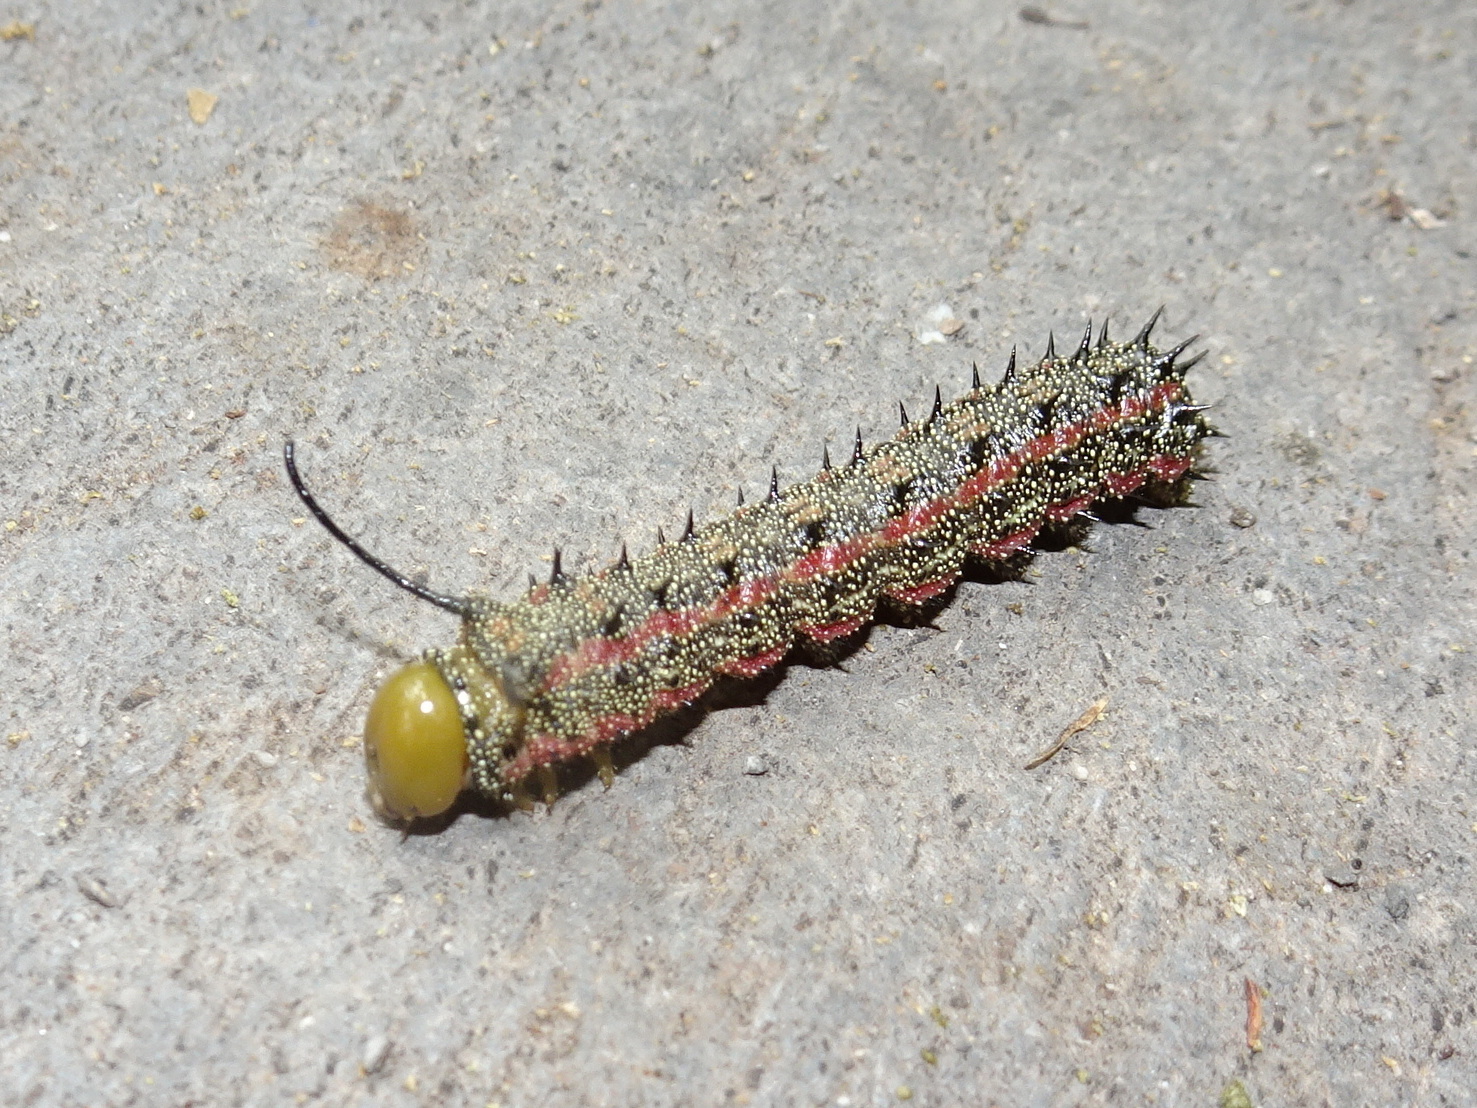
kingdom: Animalia
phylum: Arthropoda
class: Insecta
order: Lepidoptera
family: Saturniidae
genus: Anisota
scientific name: Anisota virginiensis
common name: Pink striped oakworm moth
